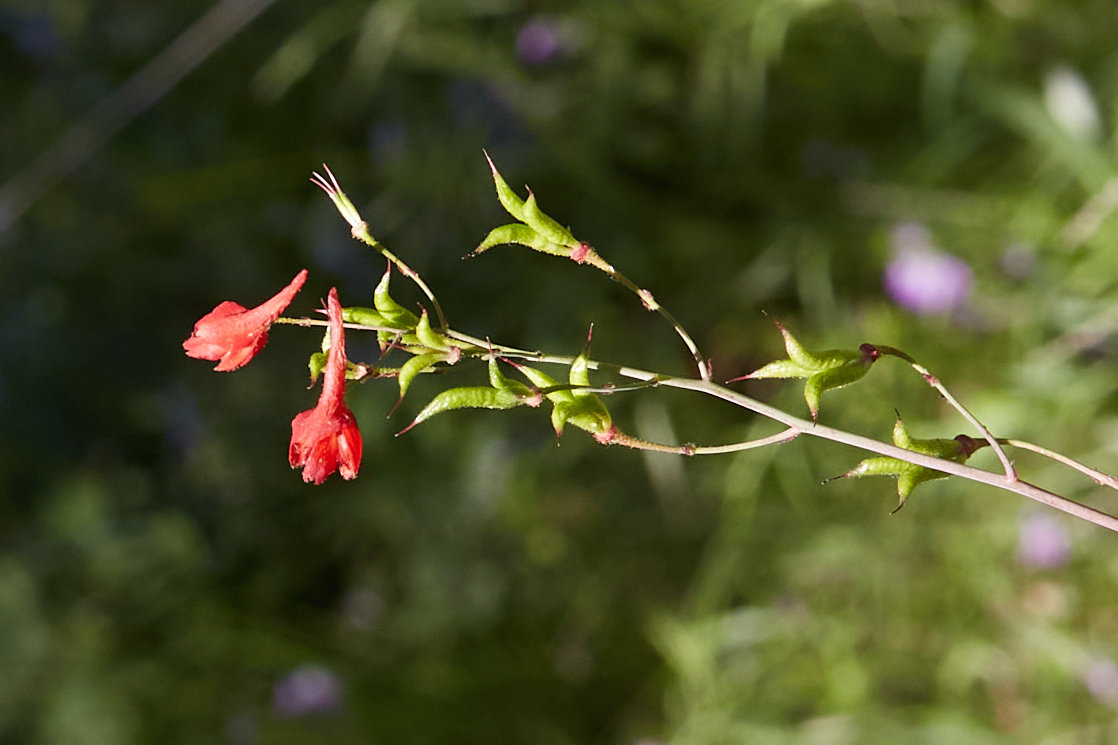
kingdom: Plantae
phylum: Tracheophyta
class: Magnoliopsida
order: Ranunculales
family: Ranunculaceae
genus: Delphinium
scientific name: Delphinium nudicaule
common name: Red larkspur
